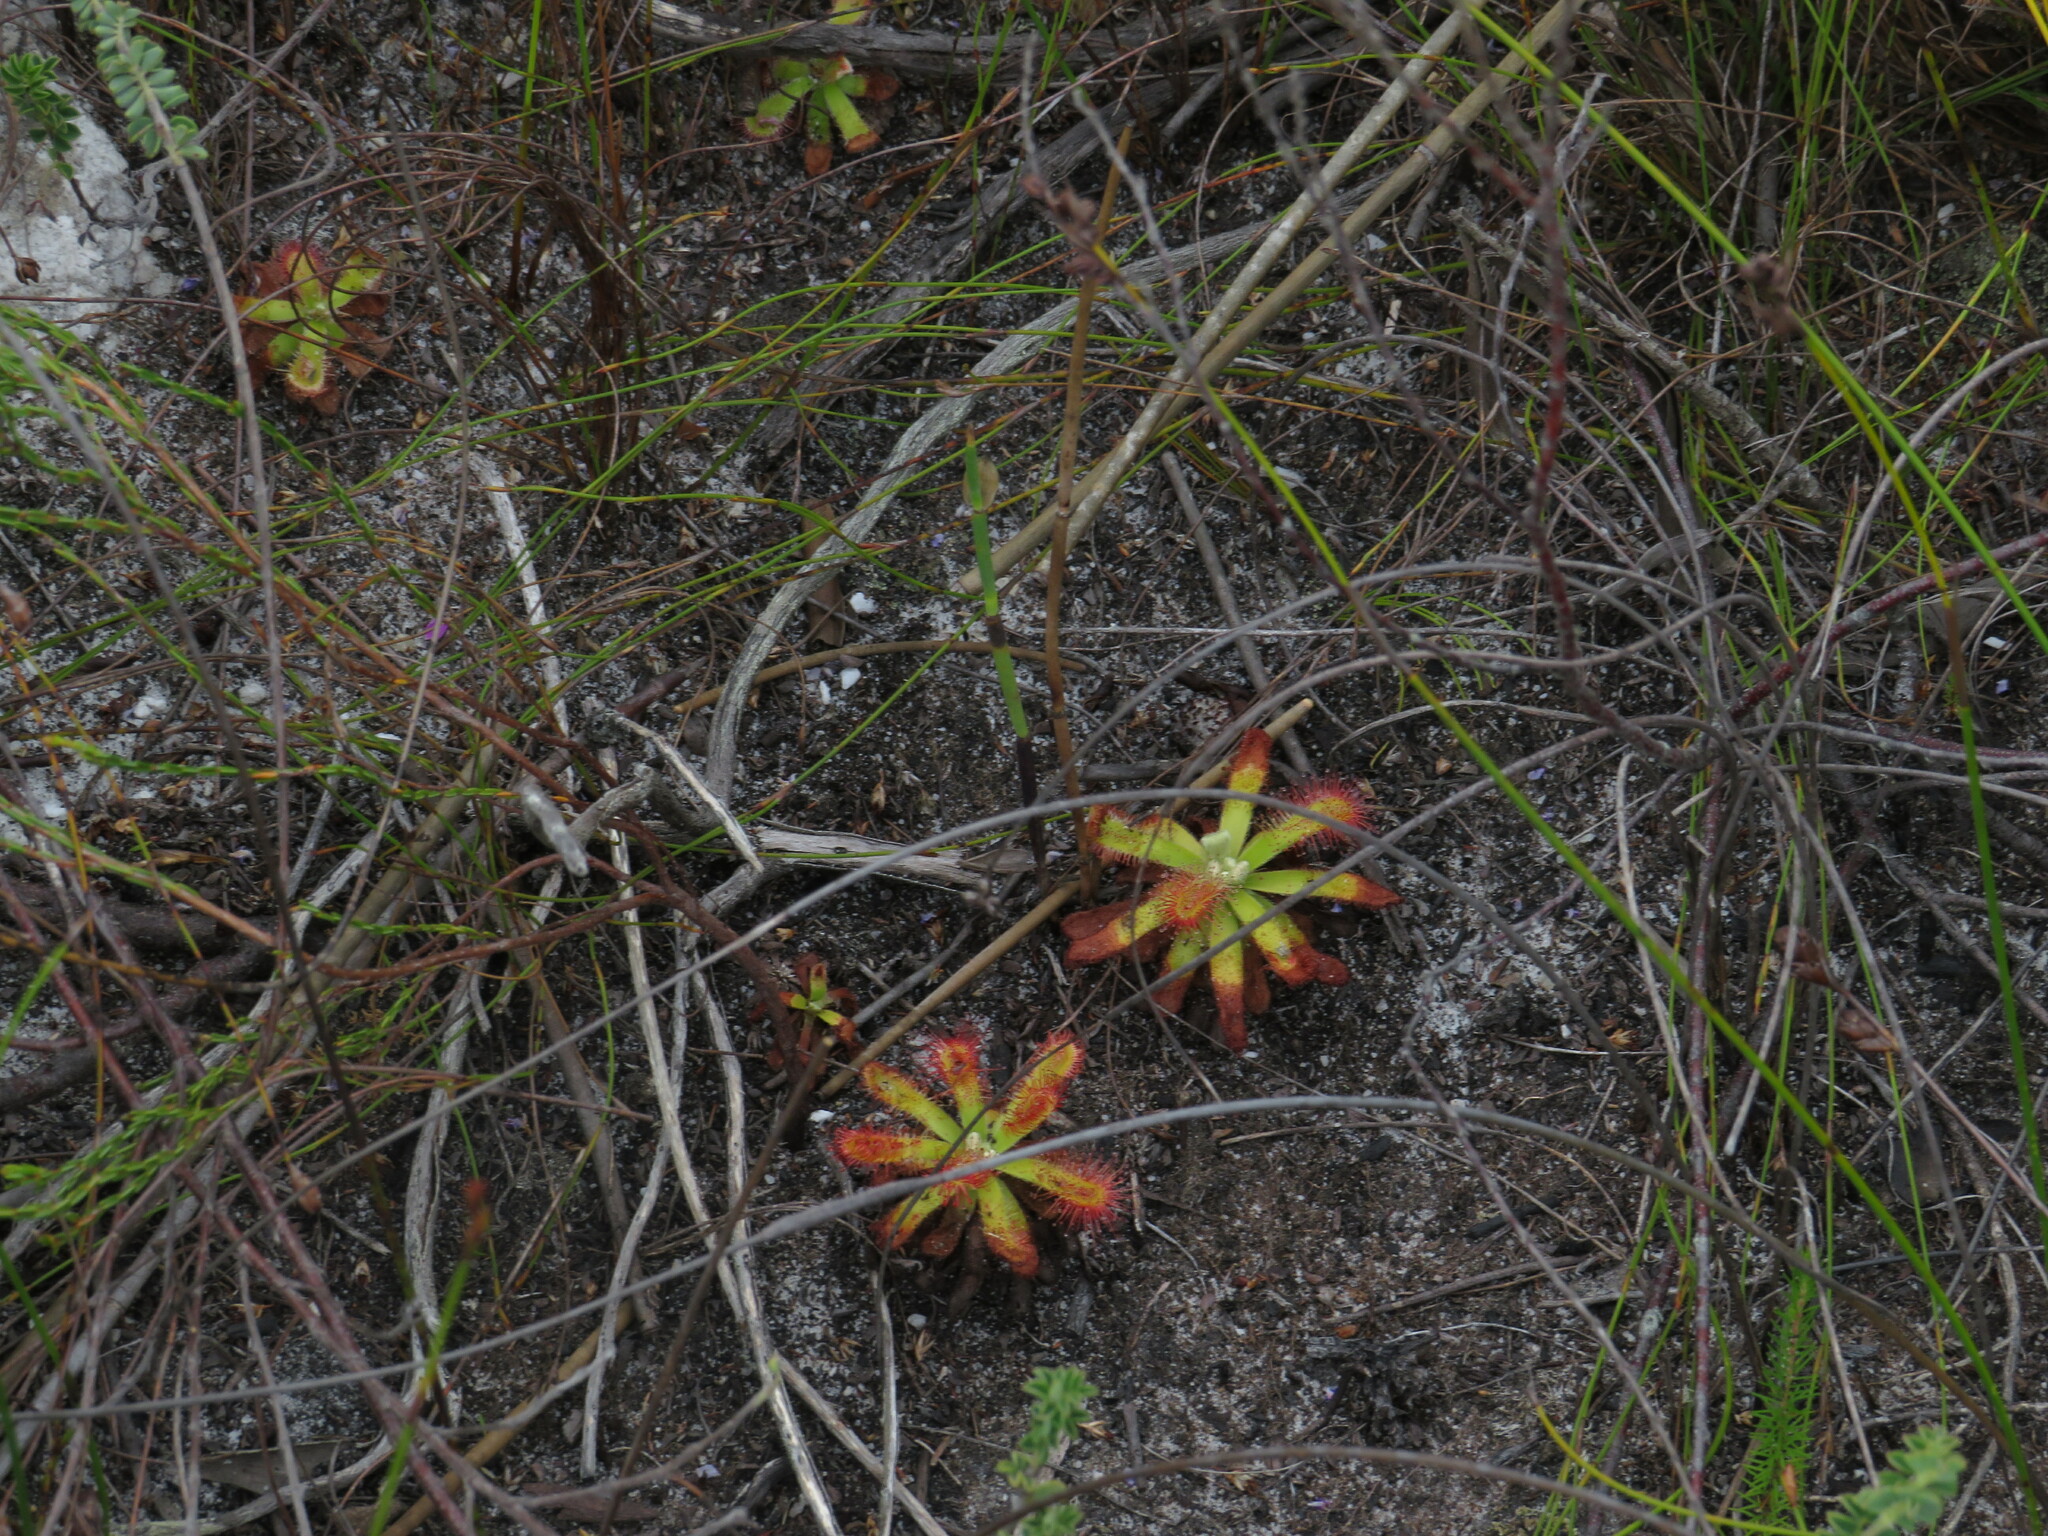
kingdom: Plantae
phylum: Tracheophyta
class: Magnoliopsida
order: Caryophyllales
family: Droseraceae
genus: Drosera
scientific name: Drosera aliciae
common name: Alice sundew
